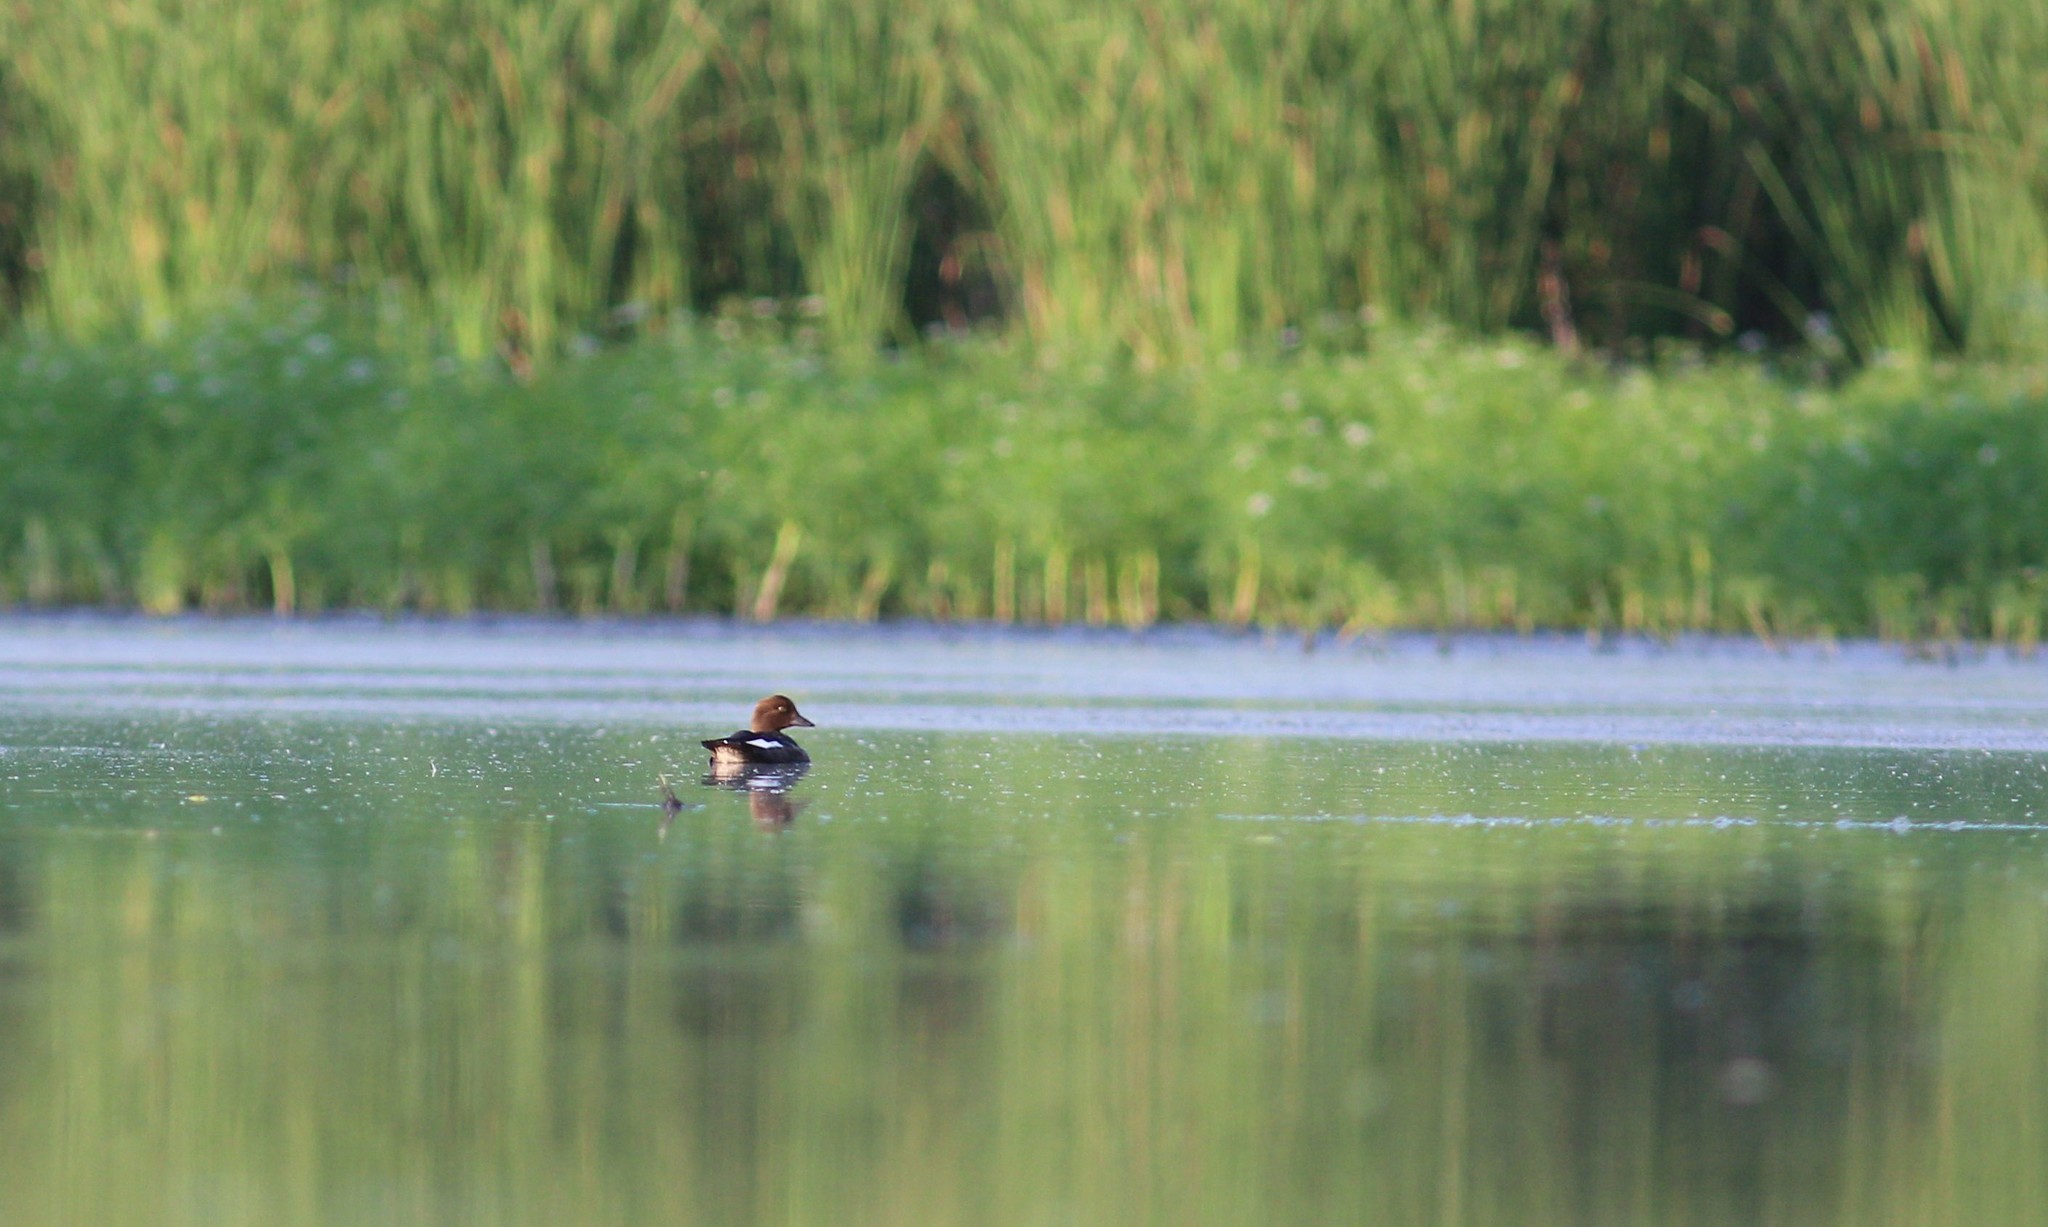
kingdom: Animalia
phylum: Chordata
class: Aves
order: Anseriformes
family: Anatidae
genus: Bucephala
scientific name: Bucephala clangula
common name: Common goldeneye
